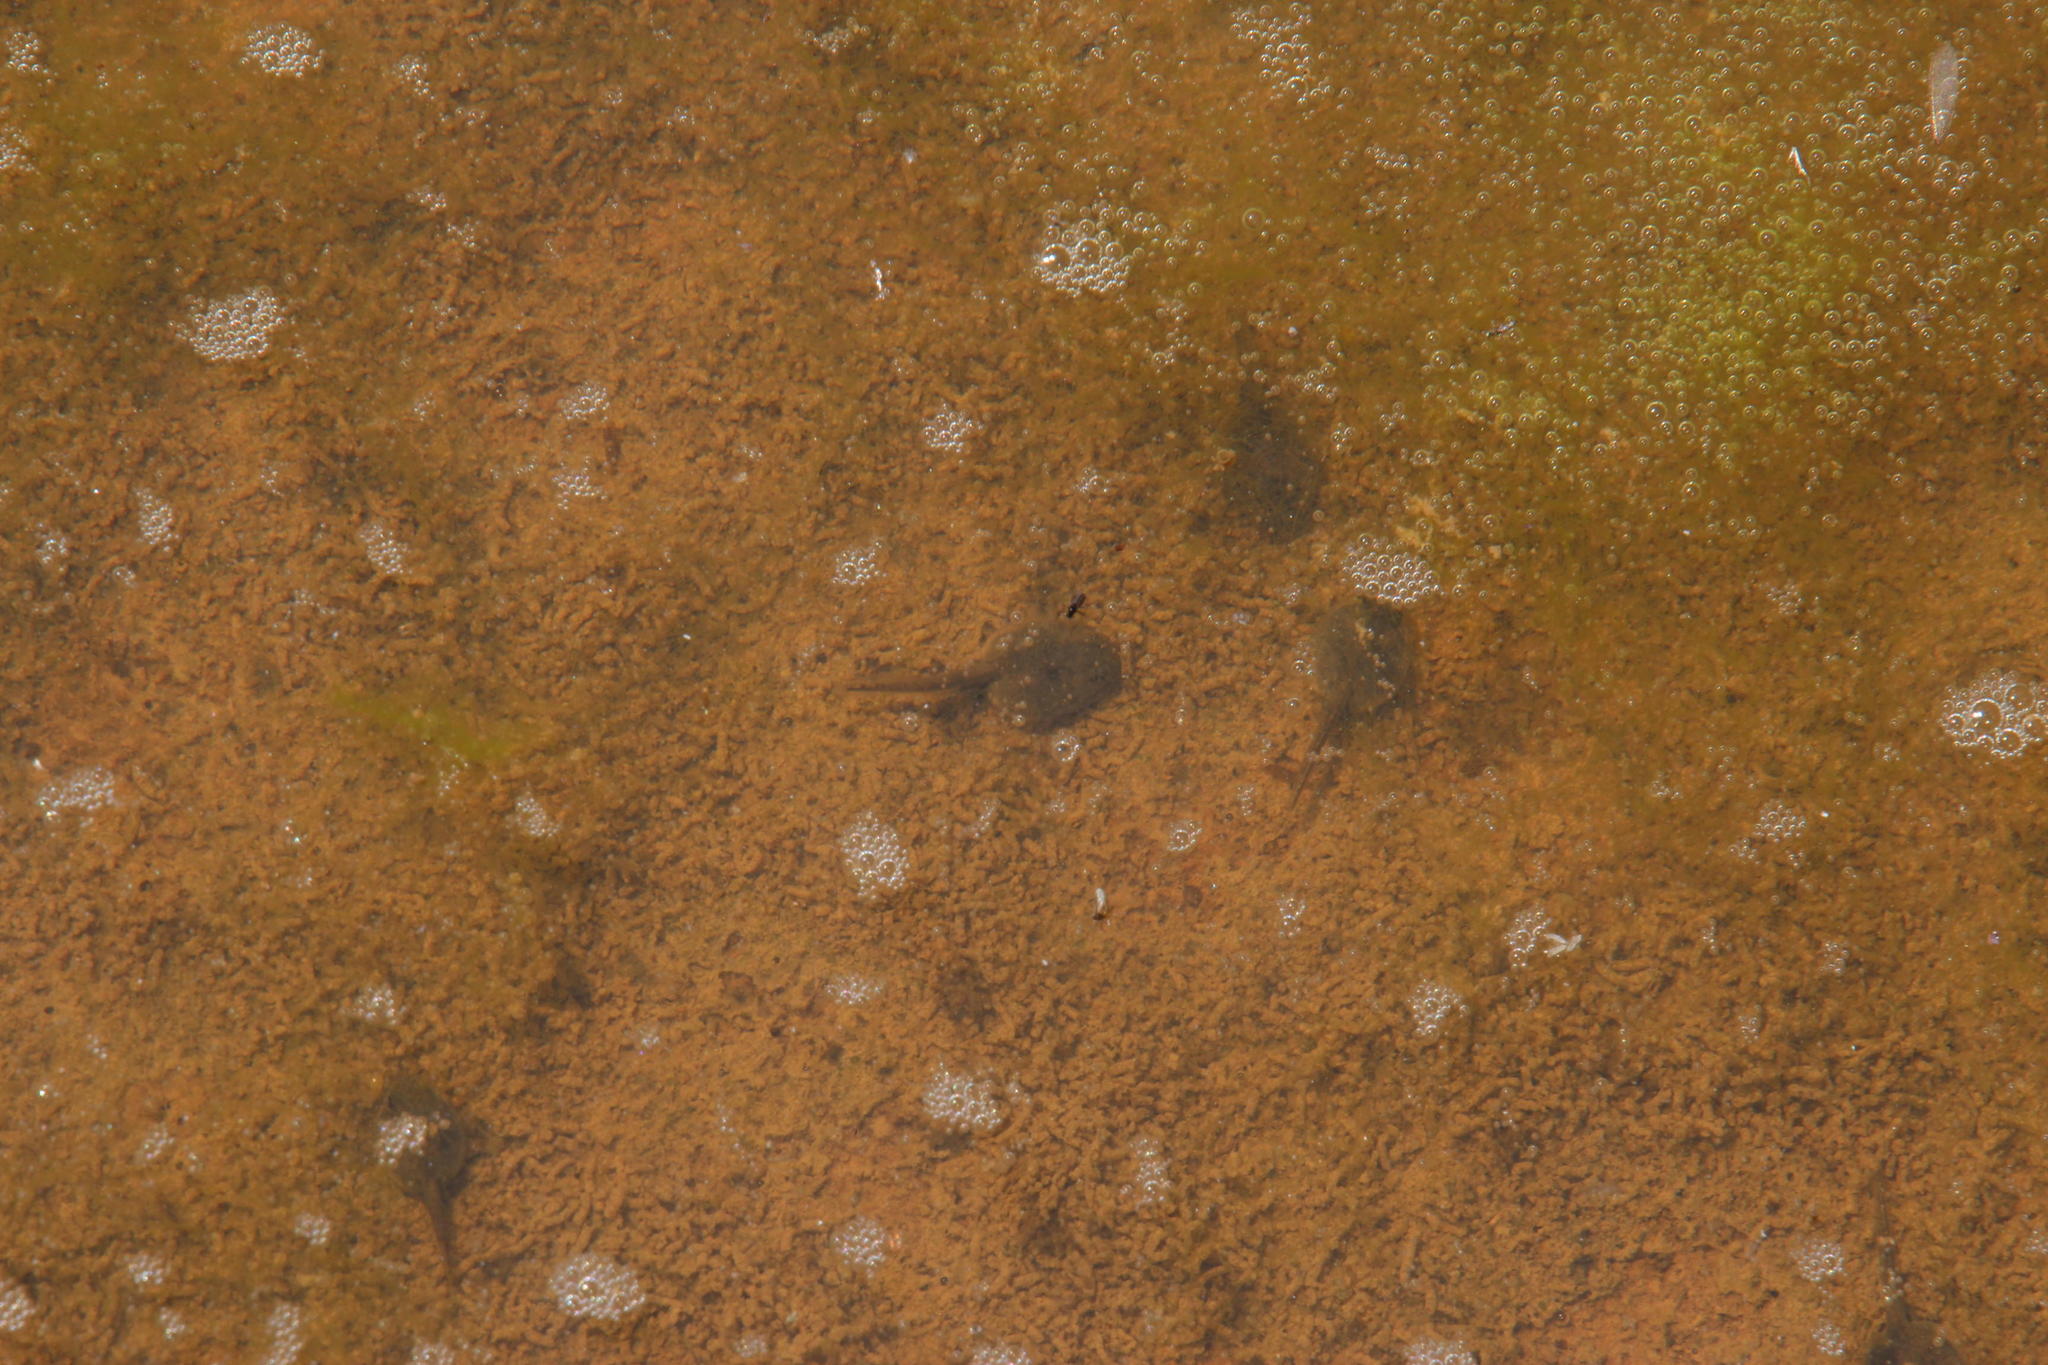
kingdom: Animalia
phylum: Chordata
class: Amphibia
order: Anura
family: Bufonidae
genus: Vandijkophrynus
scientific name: Vandijkophrynus gariepensis
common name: Gariep toad
